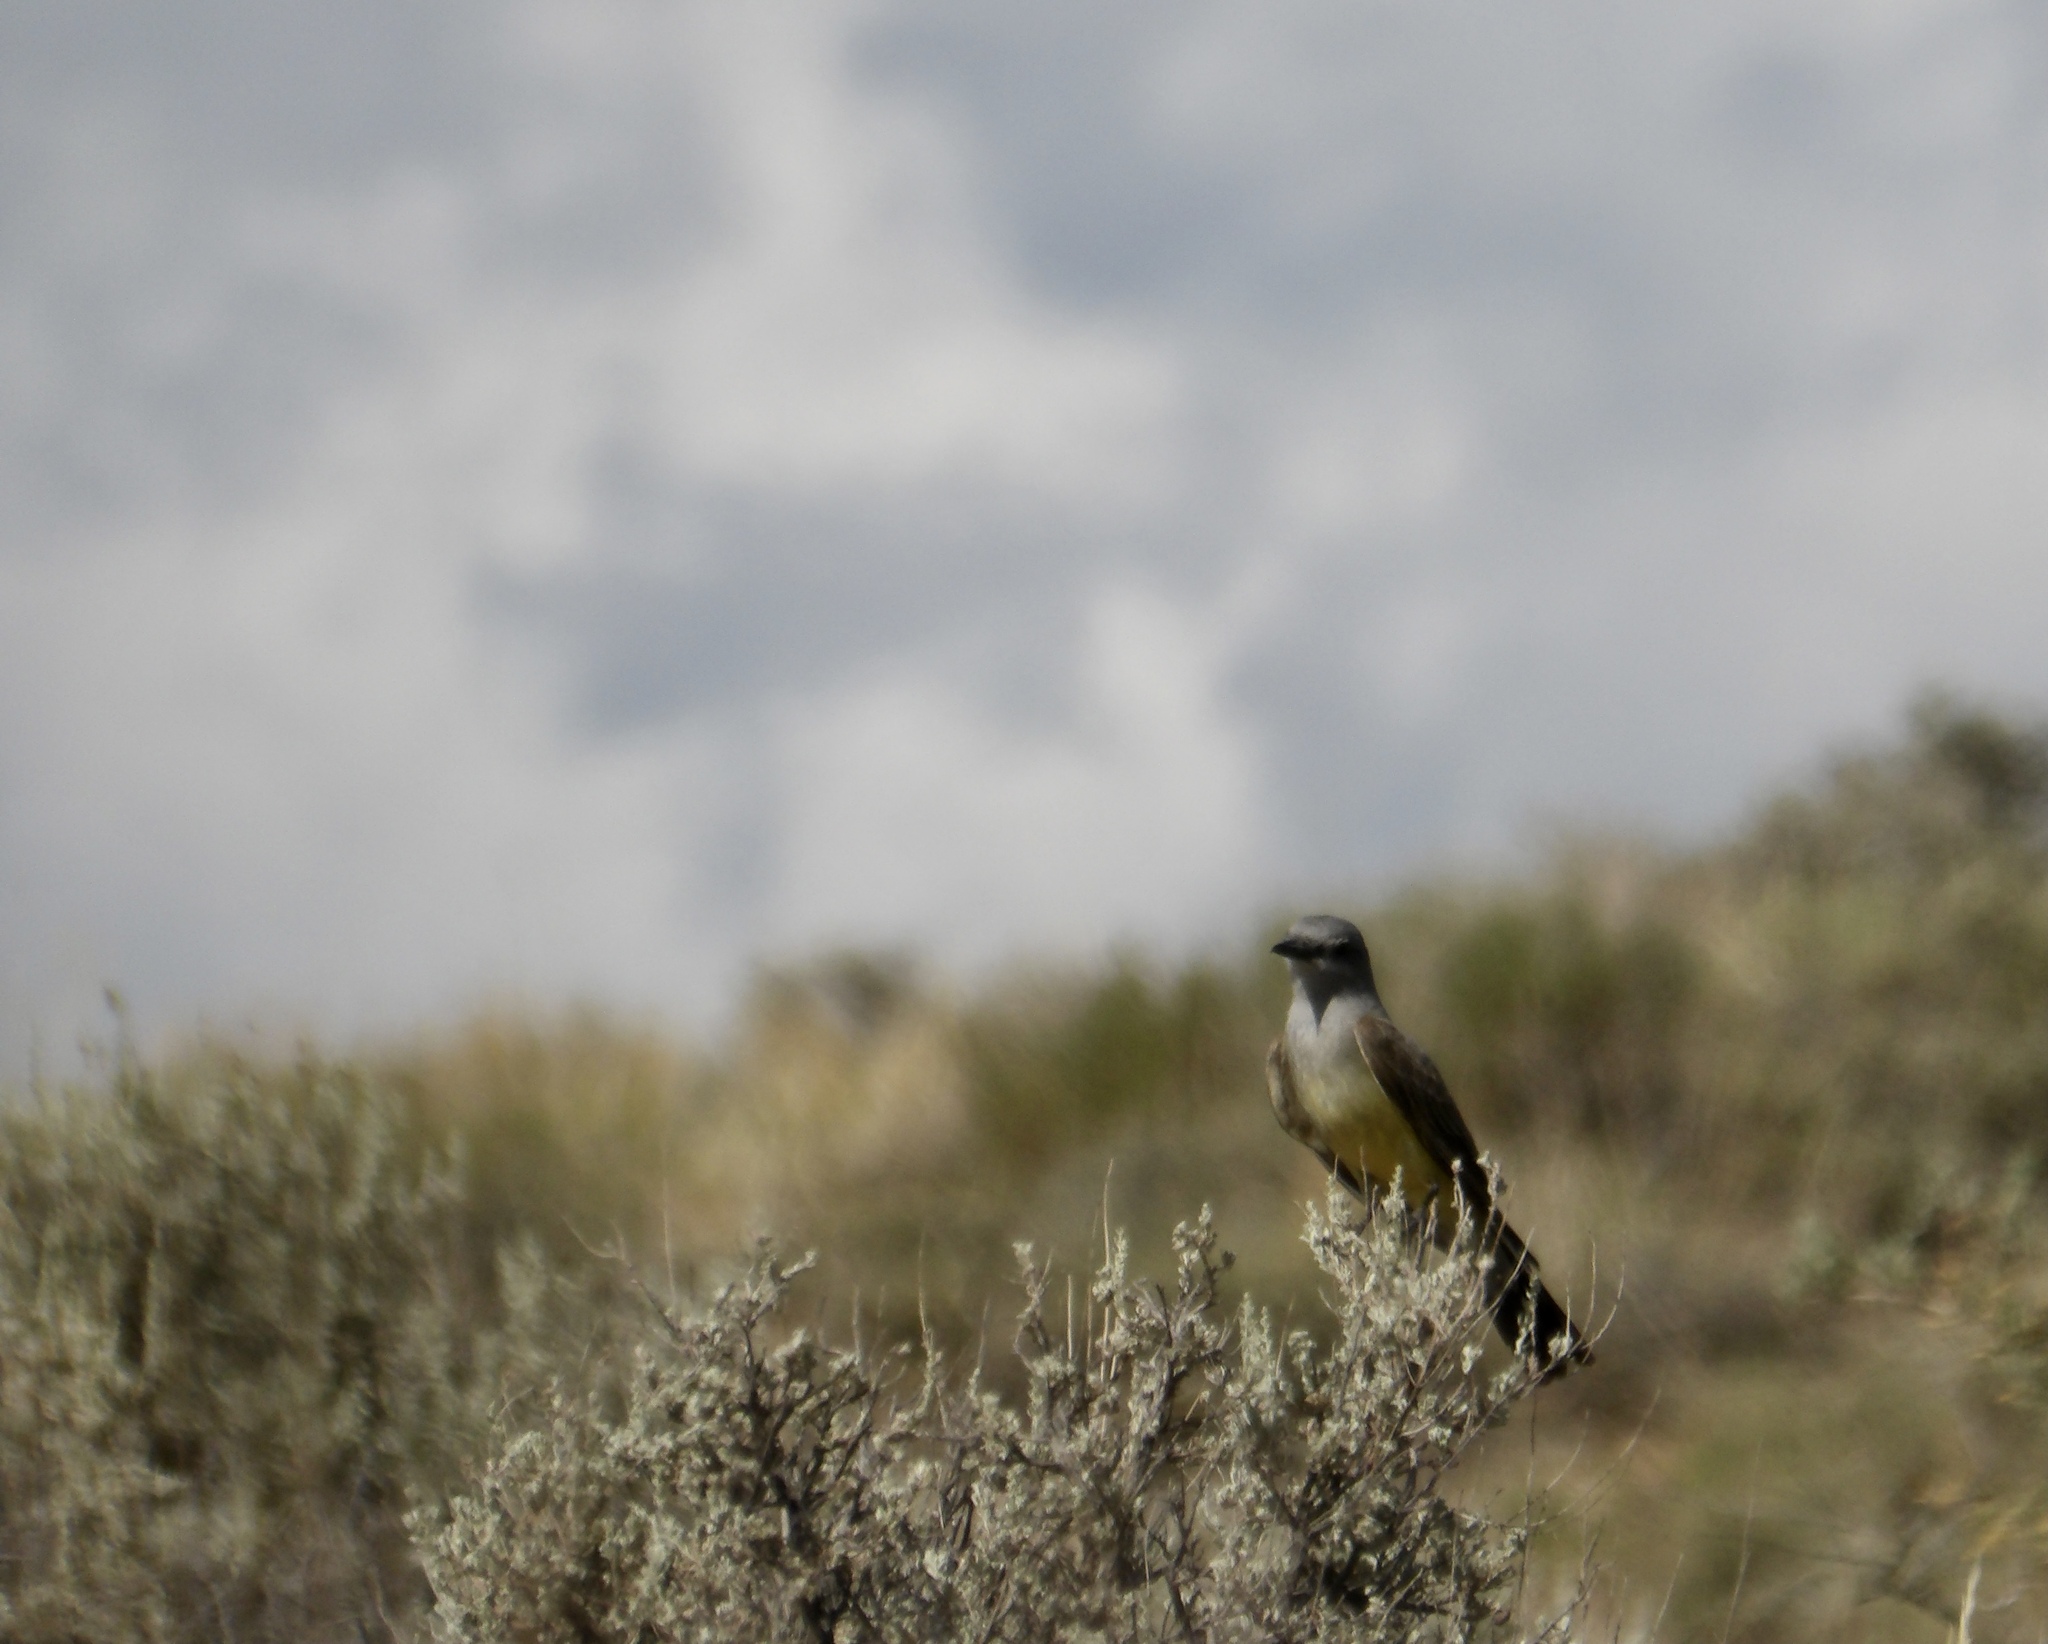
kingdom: Animalia
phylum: Chordata
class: Aves
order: Passeriformes
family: Tyrannidae
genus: Tyrannus
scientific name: Tyrannus verticalis
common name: Western kingbird
